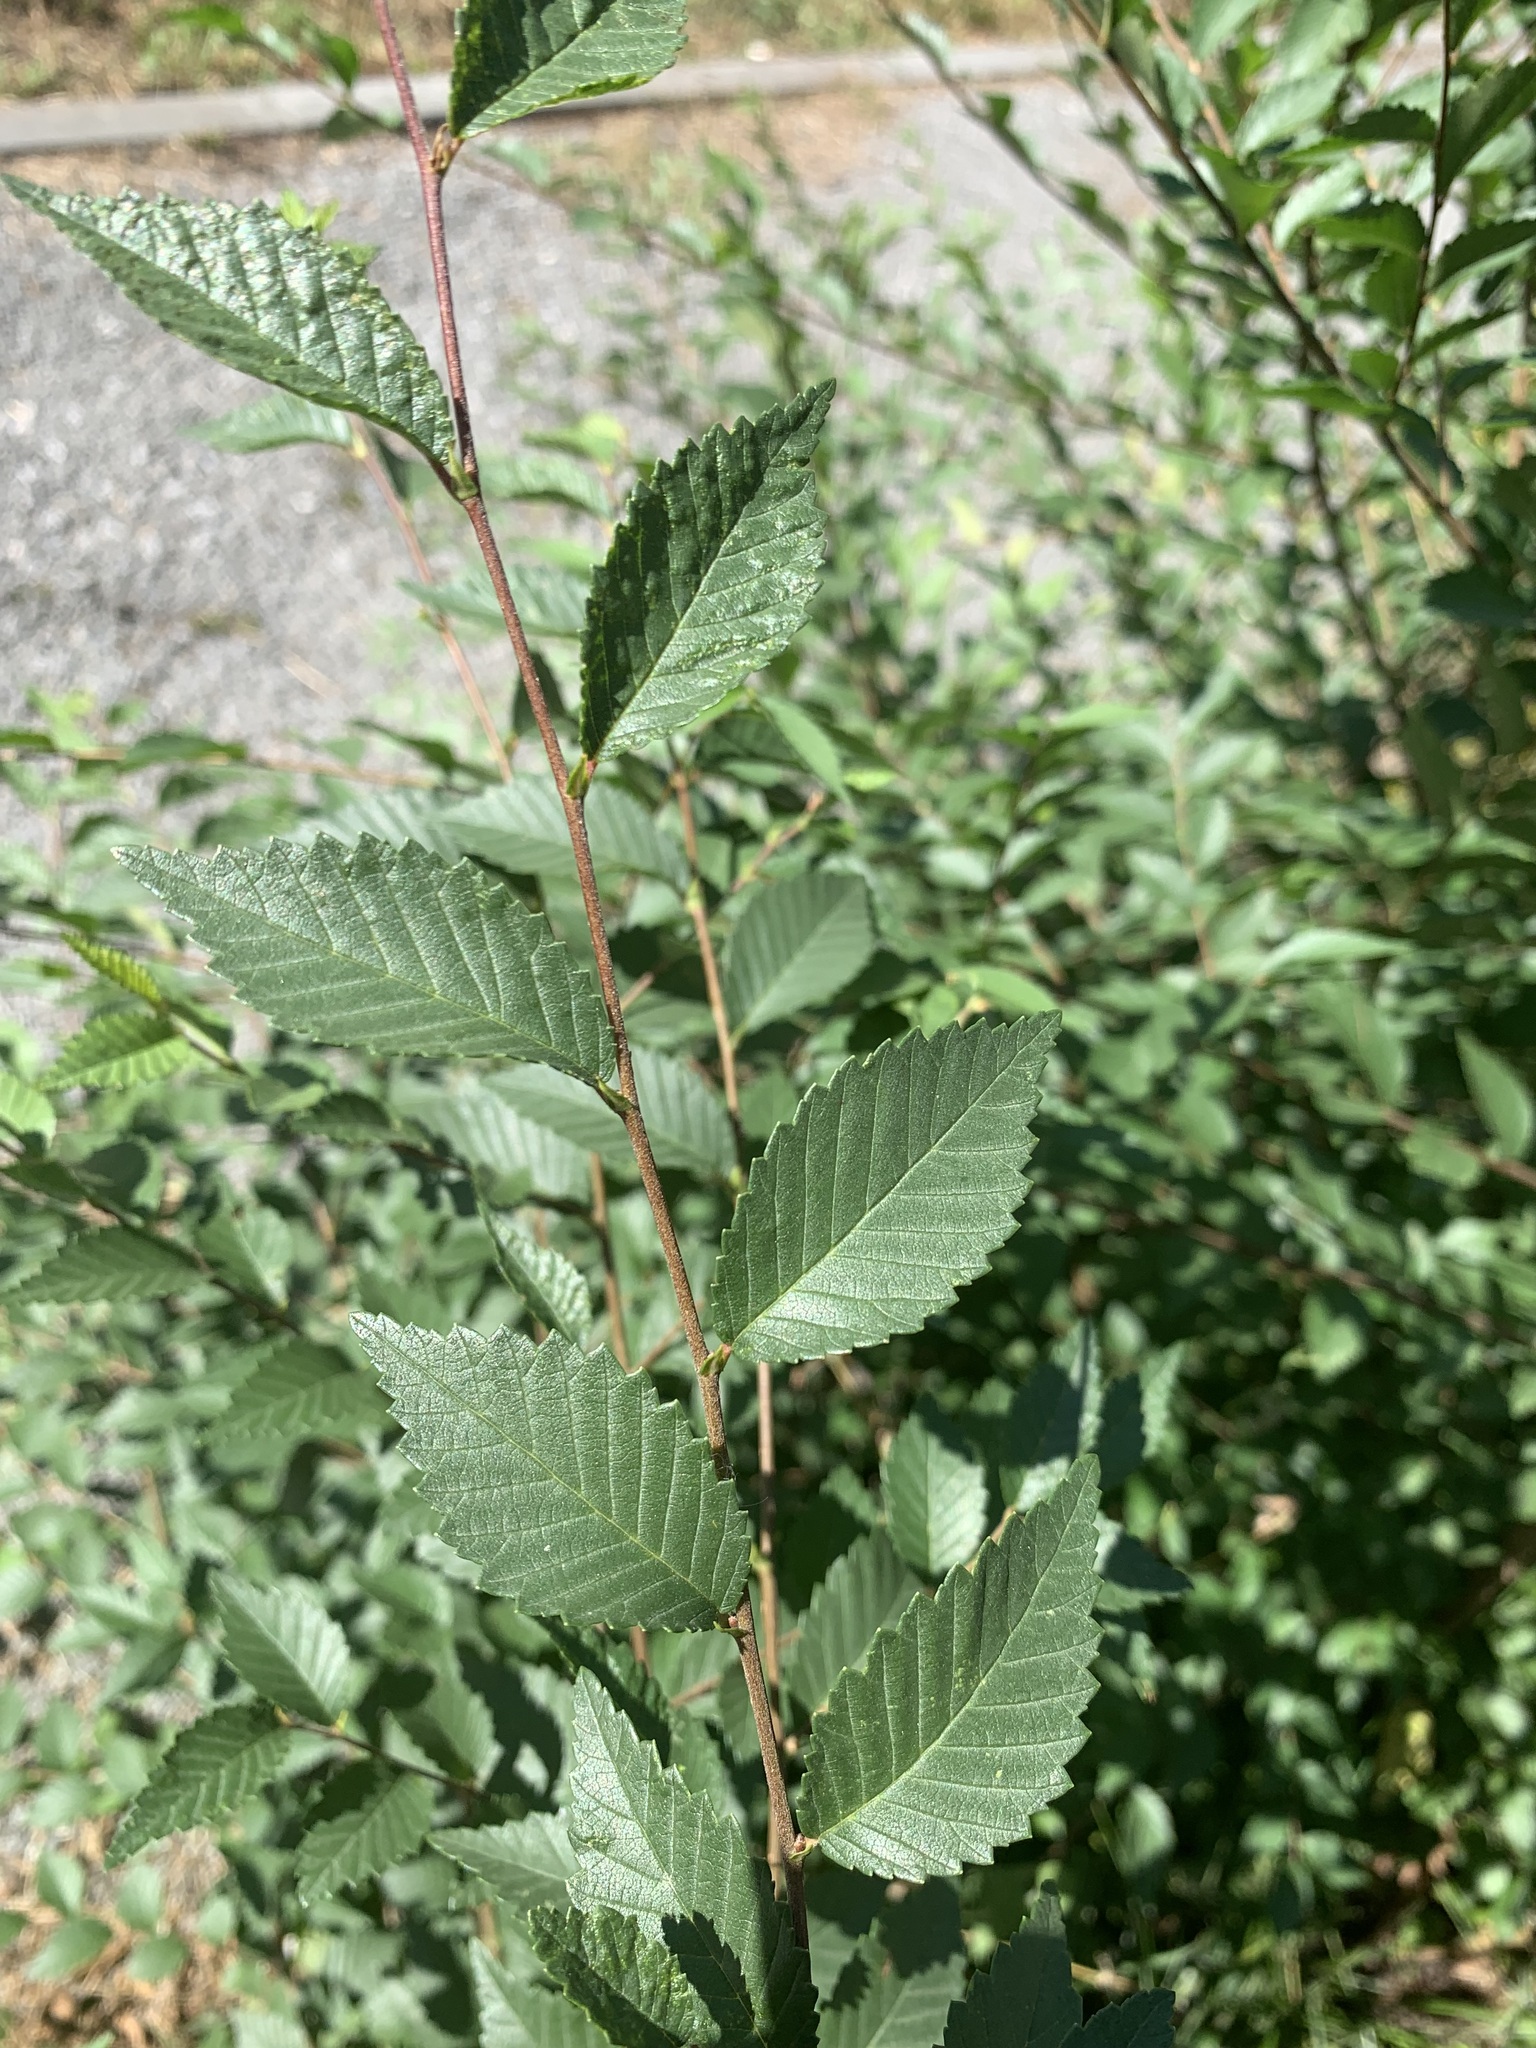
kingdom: Plantae
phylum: Tracheophyta
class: Magnoliopsida
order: Rosales
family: Ulmaceae
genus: Ulmus
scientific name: Ulmus pumila
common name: Siberian elm
